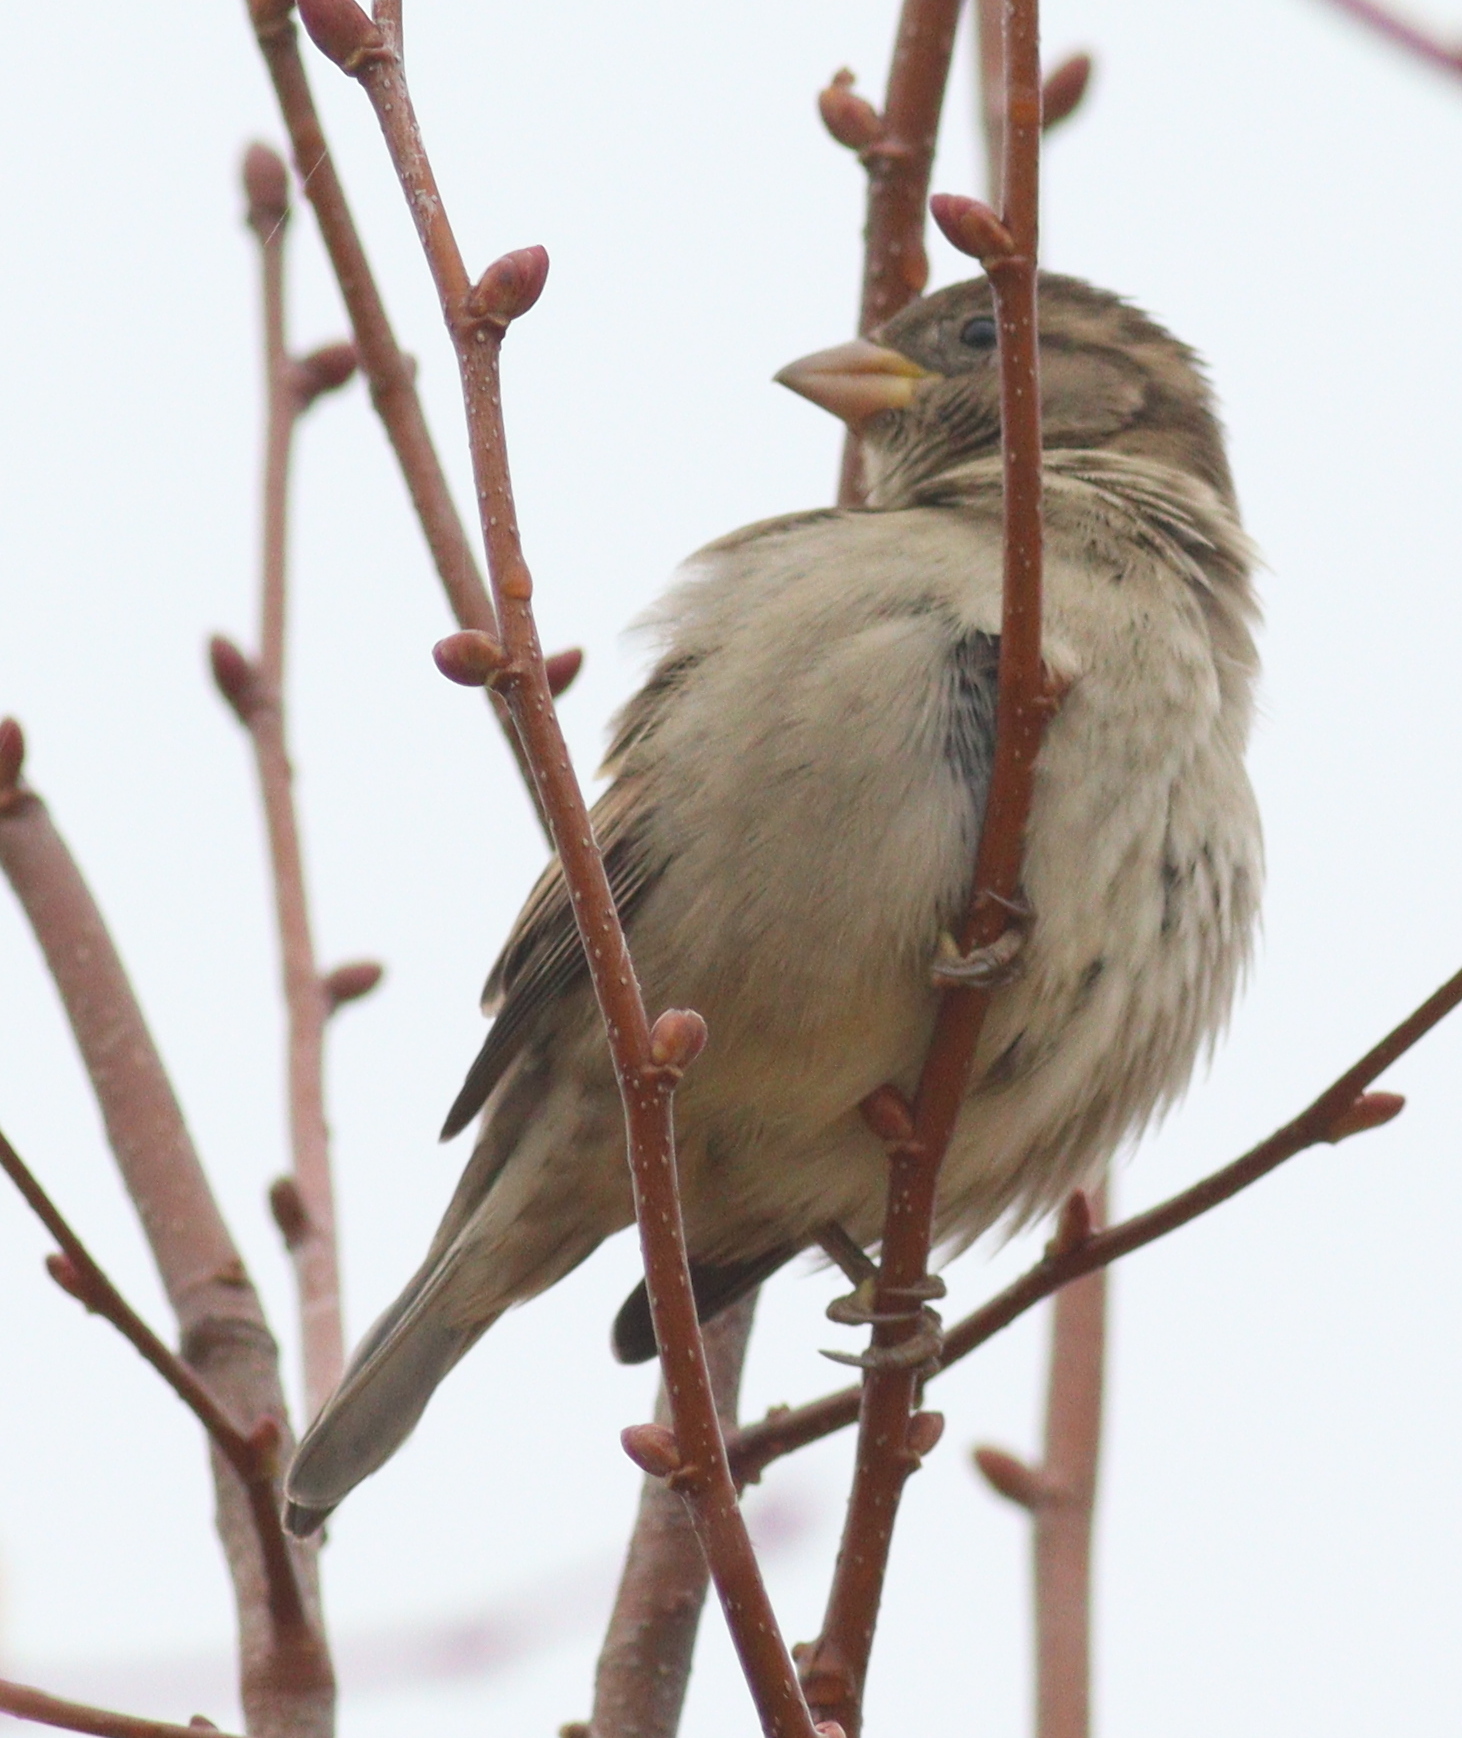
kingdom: Animalia
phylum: Chordata
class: Aves
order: Passeriformes
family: Passeridae
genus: Passer
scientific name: Passer domesticus
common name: House sparrow
